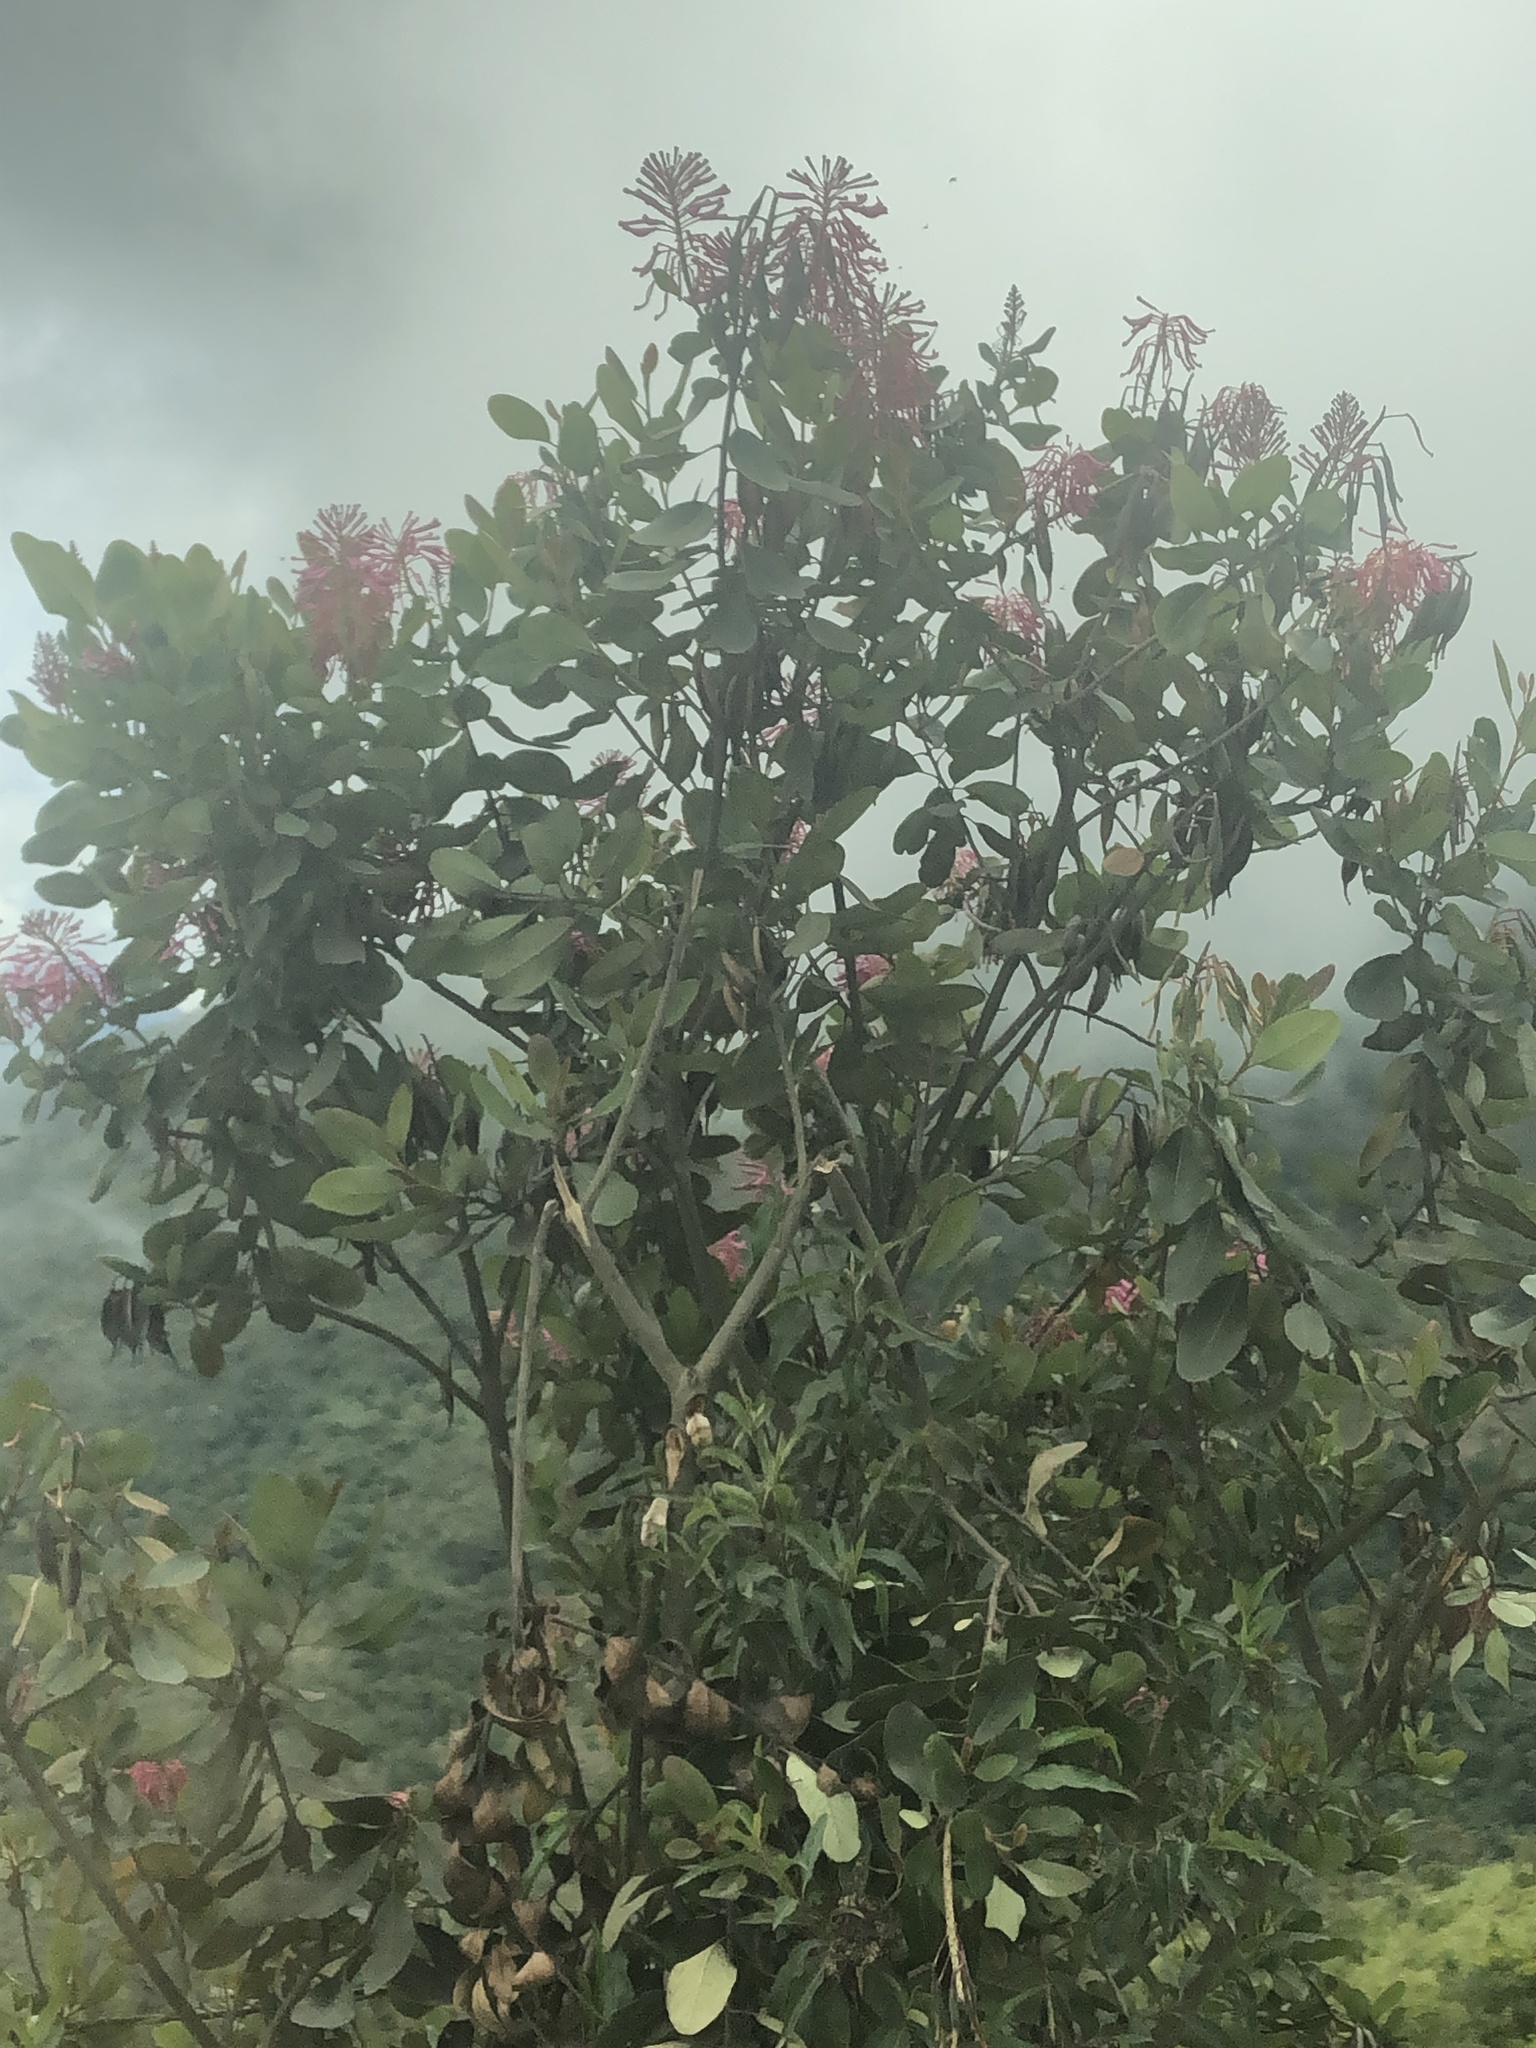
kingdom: Plantae
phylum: Tracheophyta
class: Magnoliopsida
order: Proteales
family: Proteaceae
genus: Oreocallis
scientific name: Oreocallis grandiflora
